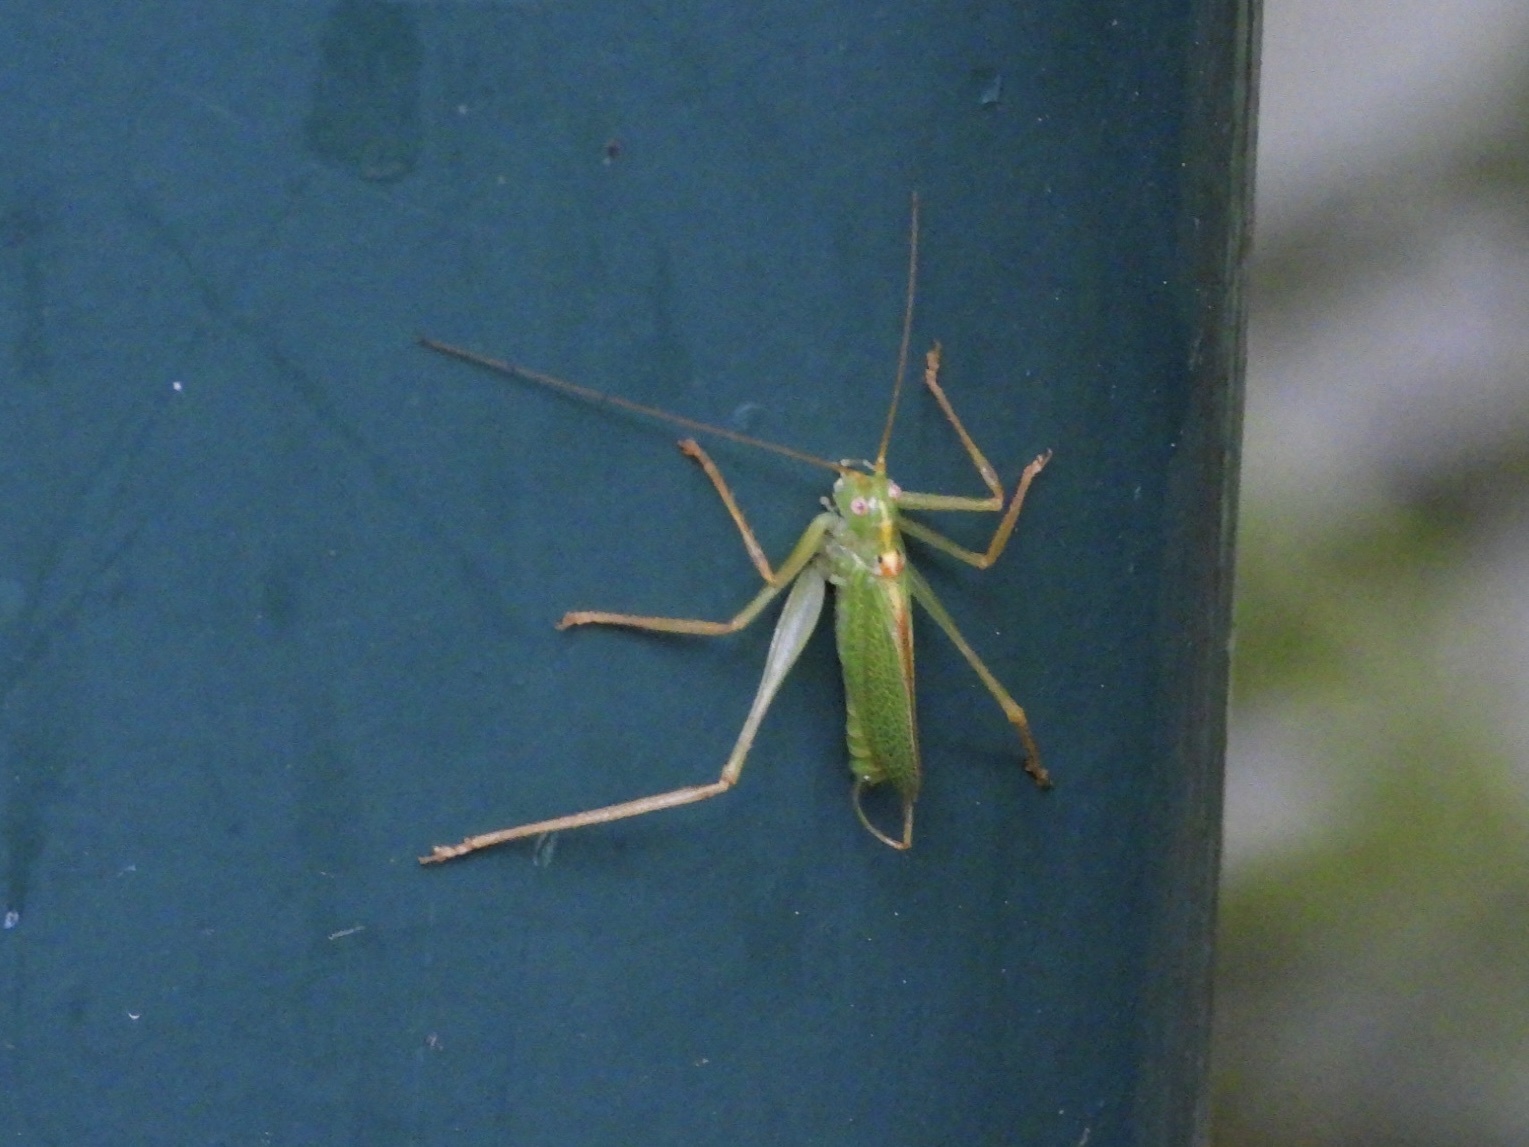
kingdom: Animalia
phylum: Arthropoda
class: Insecta
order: Orthoptera
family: Tettigoniidae
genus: Meconema
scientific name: Meconema thalassinum
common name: Oak bush-cricket
